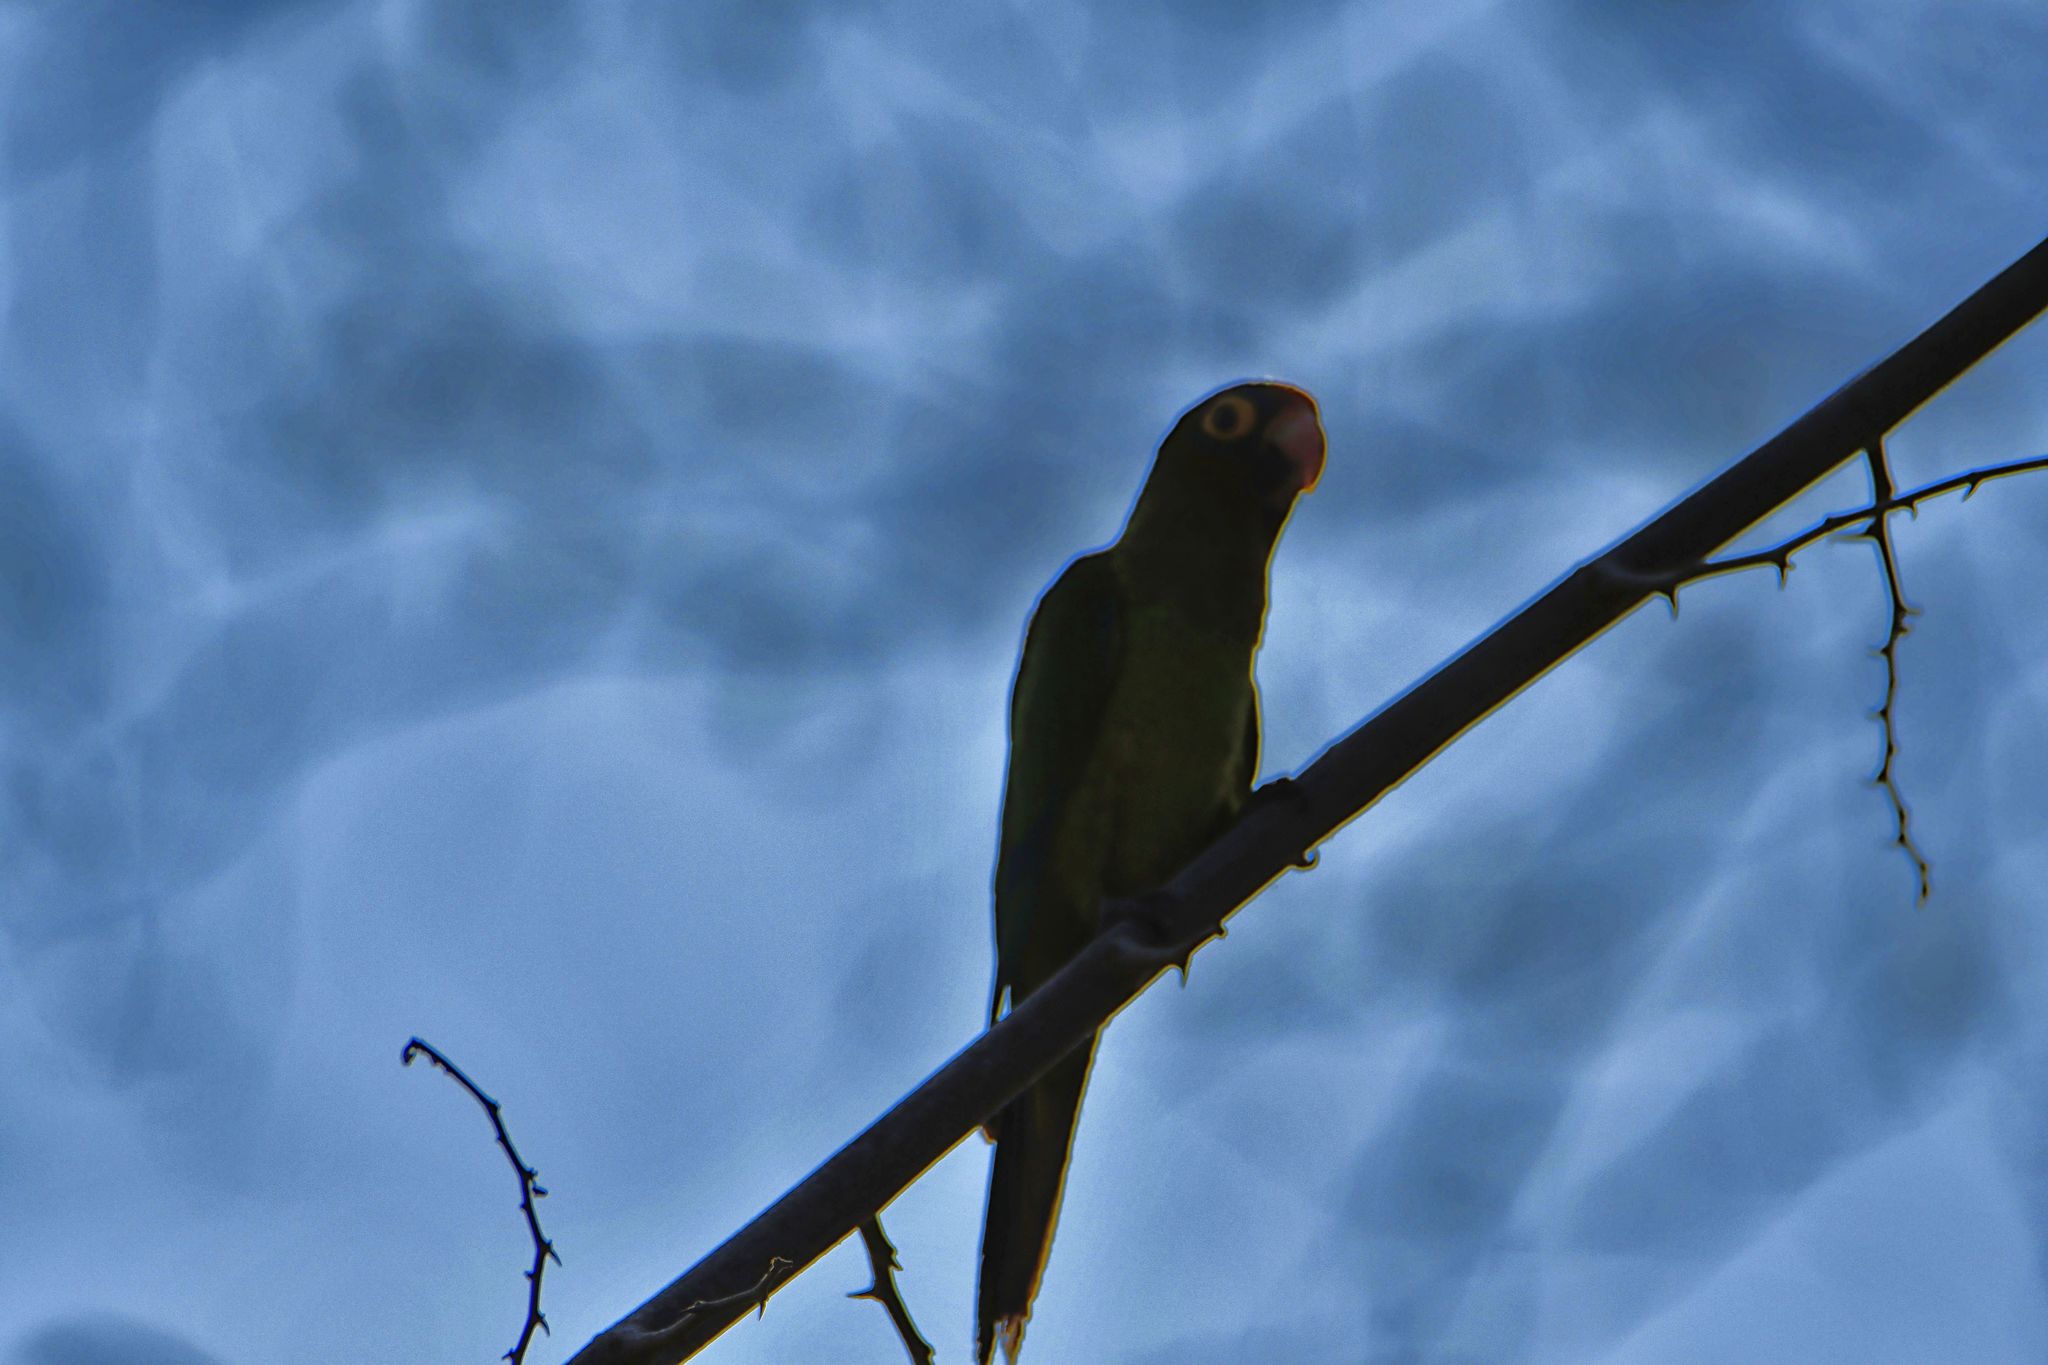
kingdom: Animalia
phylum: Chordata
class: Aves
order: Psittaciformes
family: Psittacidae
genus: Aratinga
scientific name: Aratinga canicularis
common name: Orange-fronted parakeet
